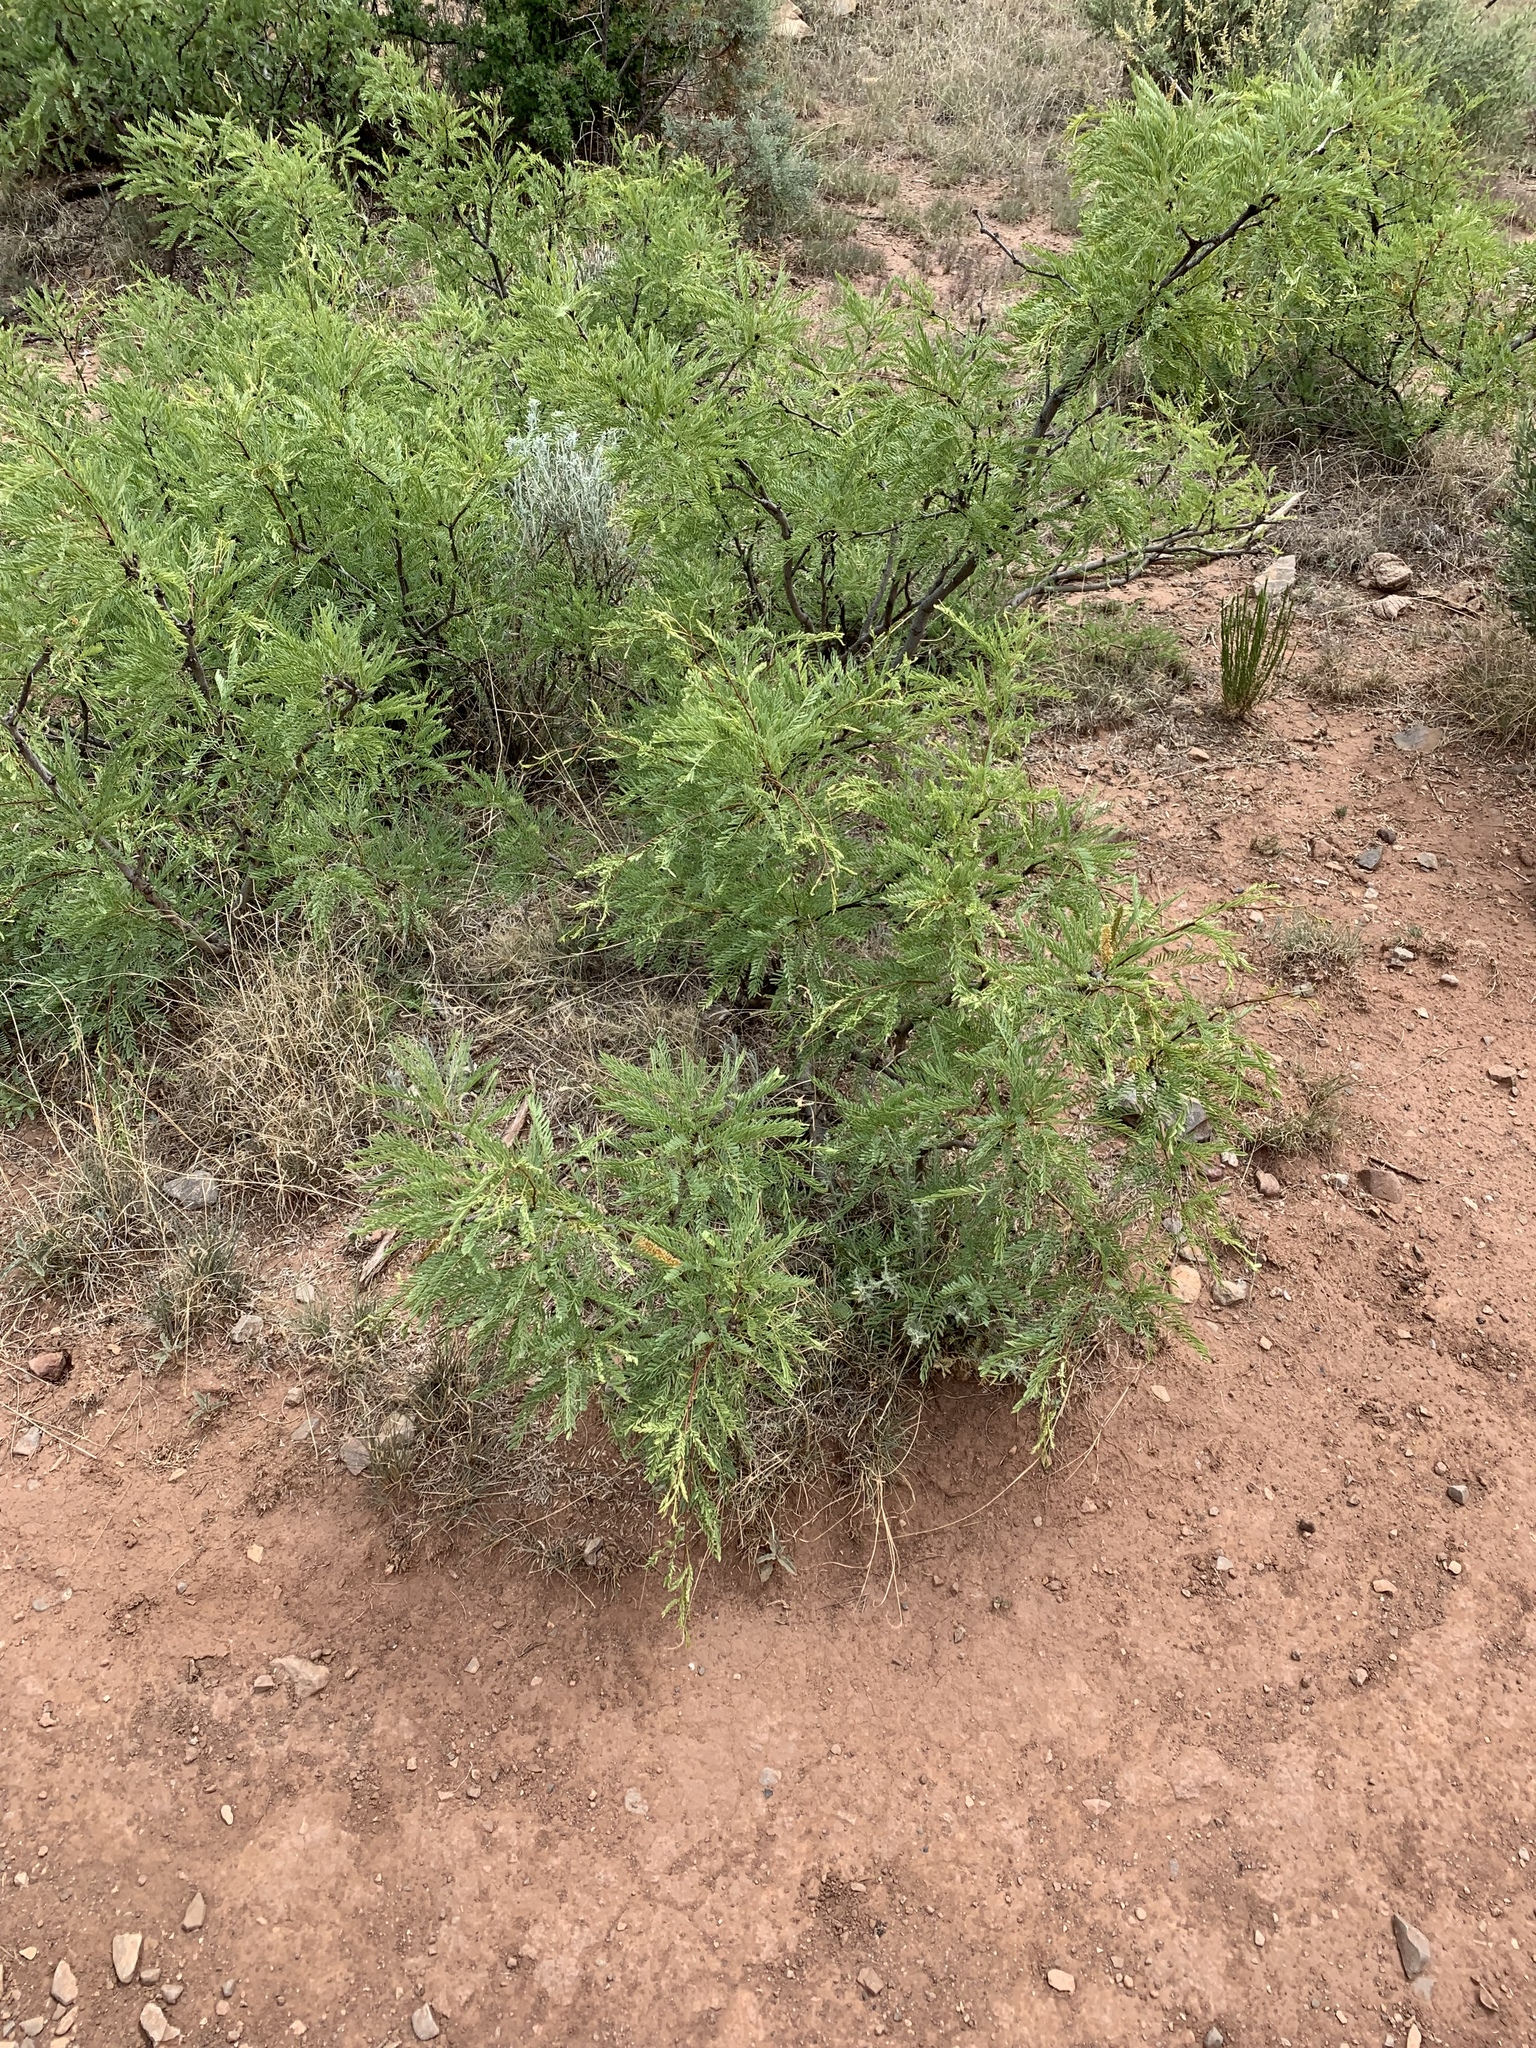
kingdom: Plantae
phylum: Tracheophyta
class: Magnoliopsida
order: Fabales
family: Fabaceae
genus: Prosopis
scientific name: Prosopis glandulosa
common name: Honey mesquite
